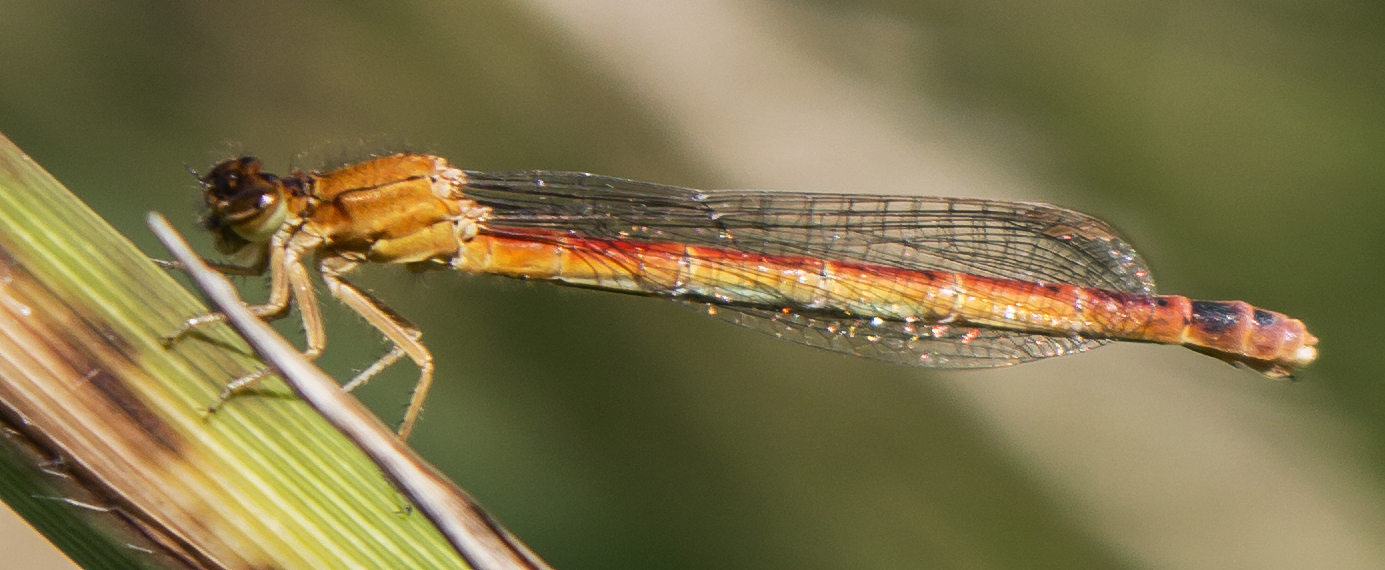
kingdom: Animalia
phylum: Arthropoda
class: Insecta
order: Odonata
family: Coenagrionidae
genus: Amphiagrion
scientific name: Amphiagrion abbreviatum
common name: Western red damsel
